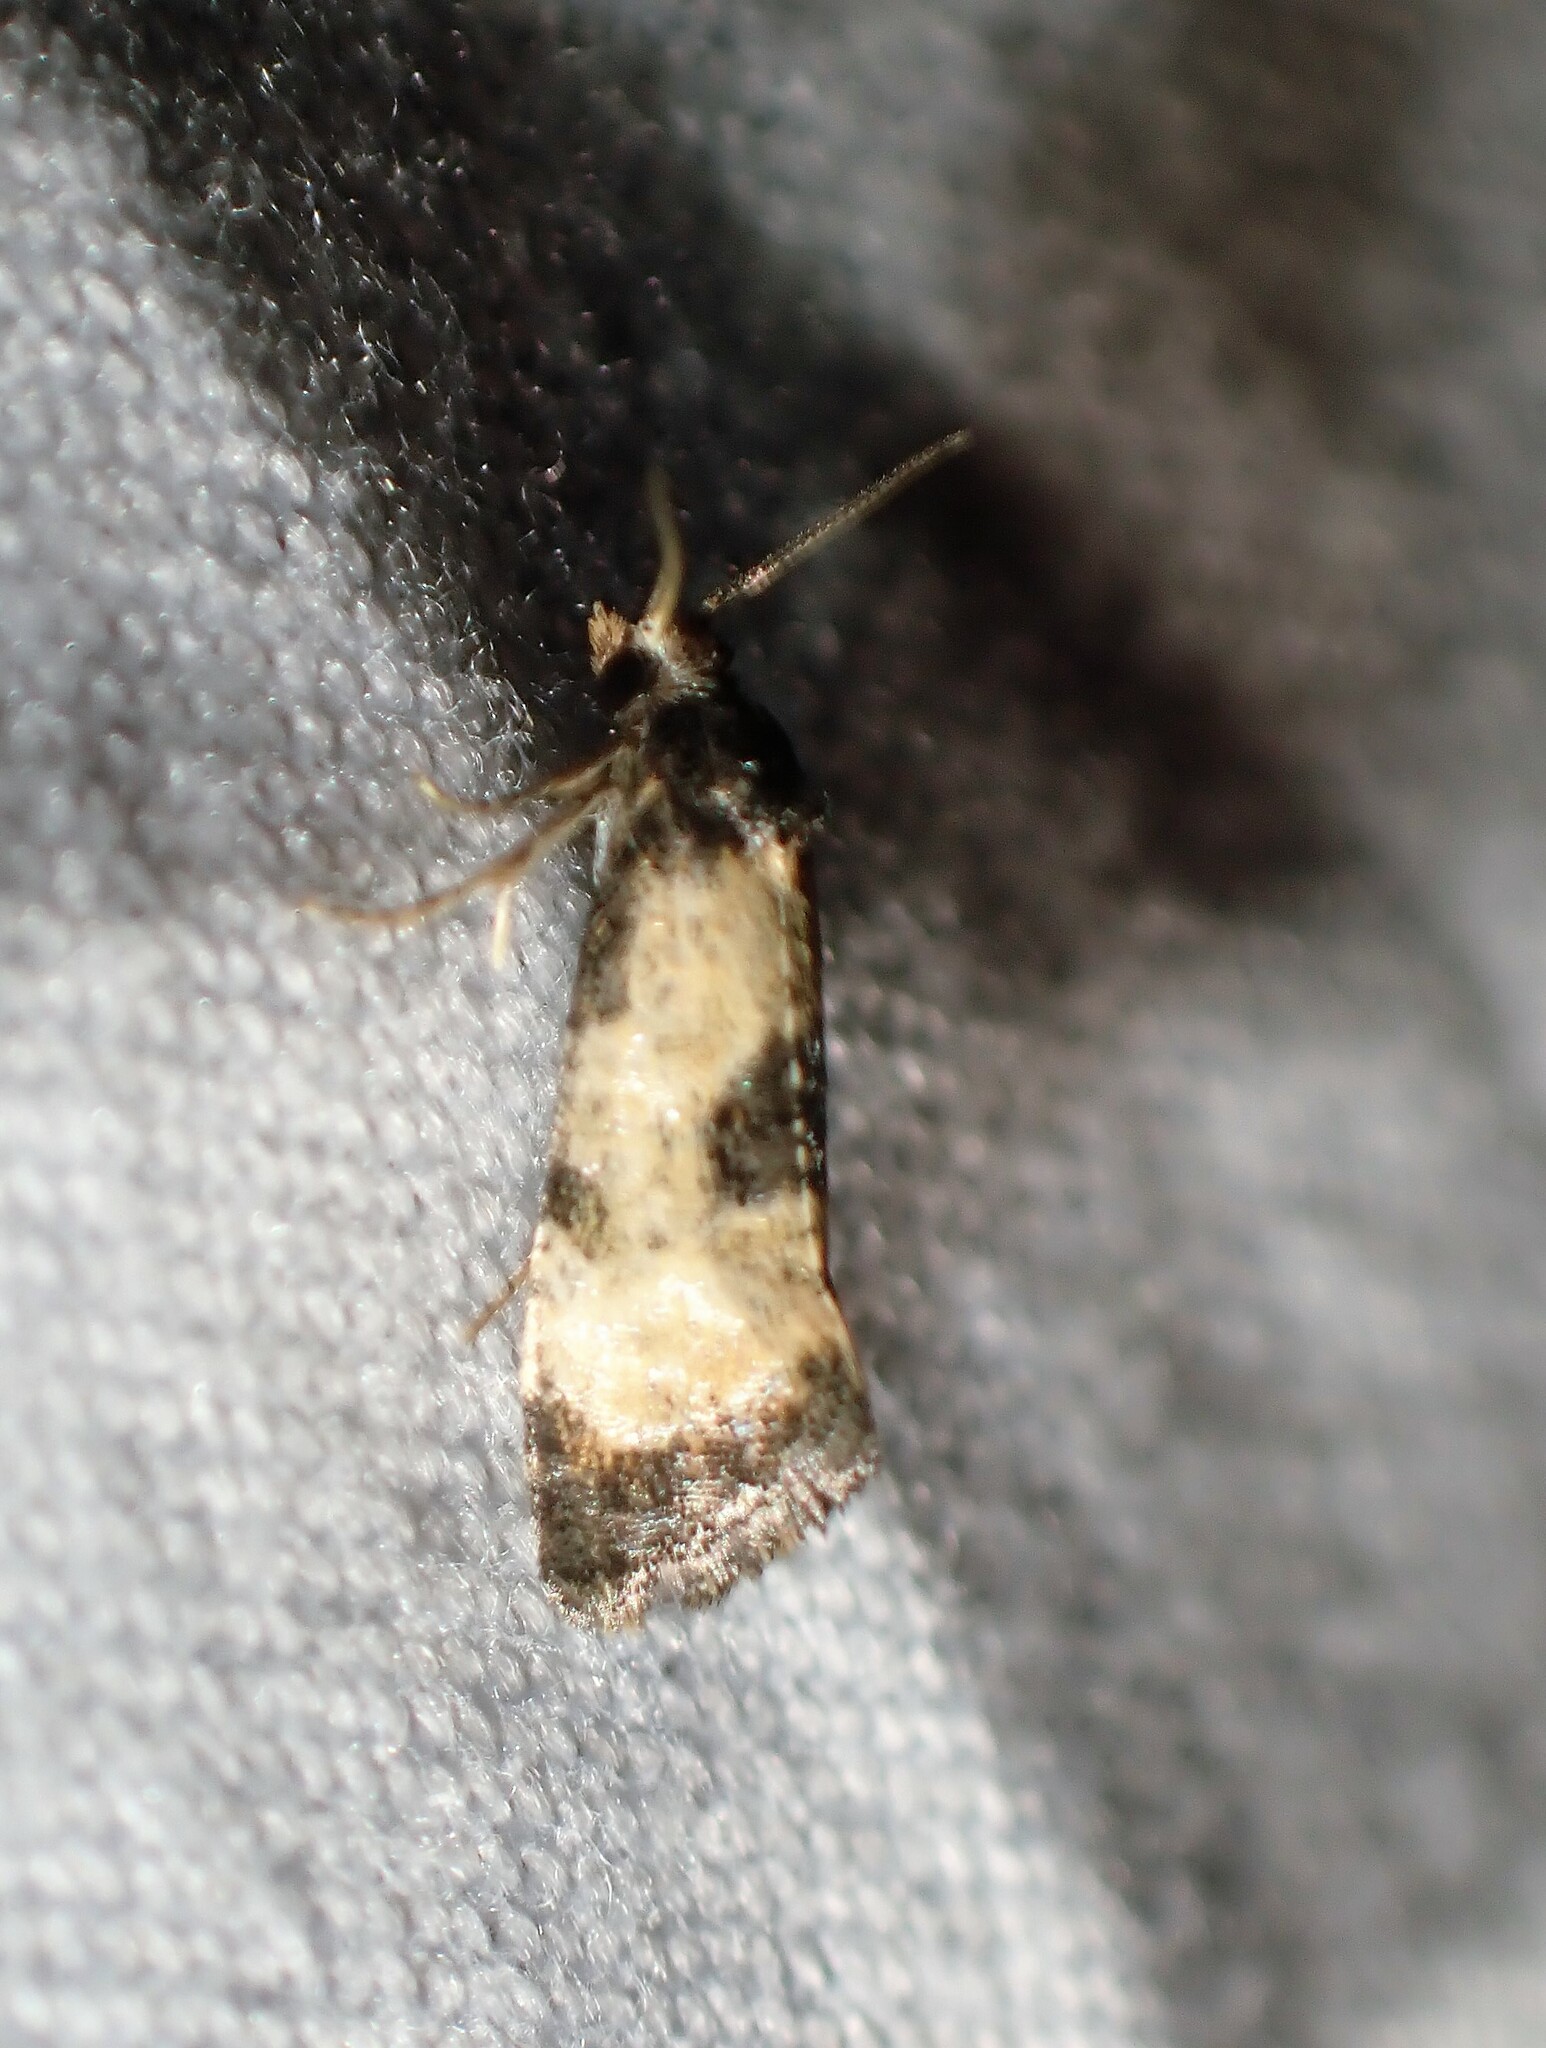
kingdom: Animalia
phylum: Arthropoda
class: Insecta
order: Lepidoptera
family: Tortricidae
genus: Cochylis
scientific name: Cochylis dubitana
